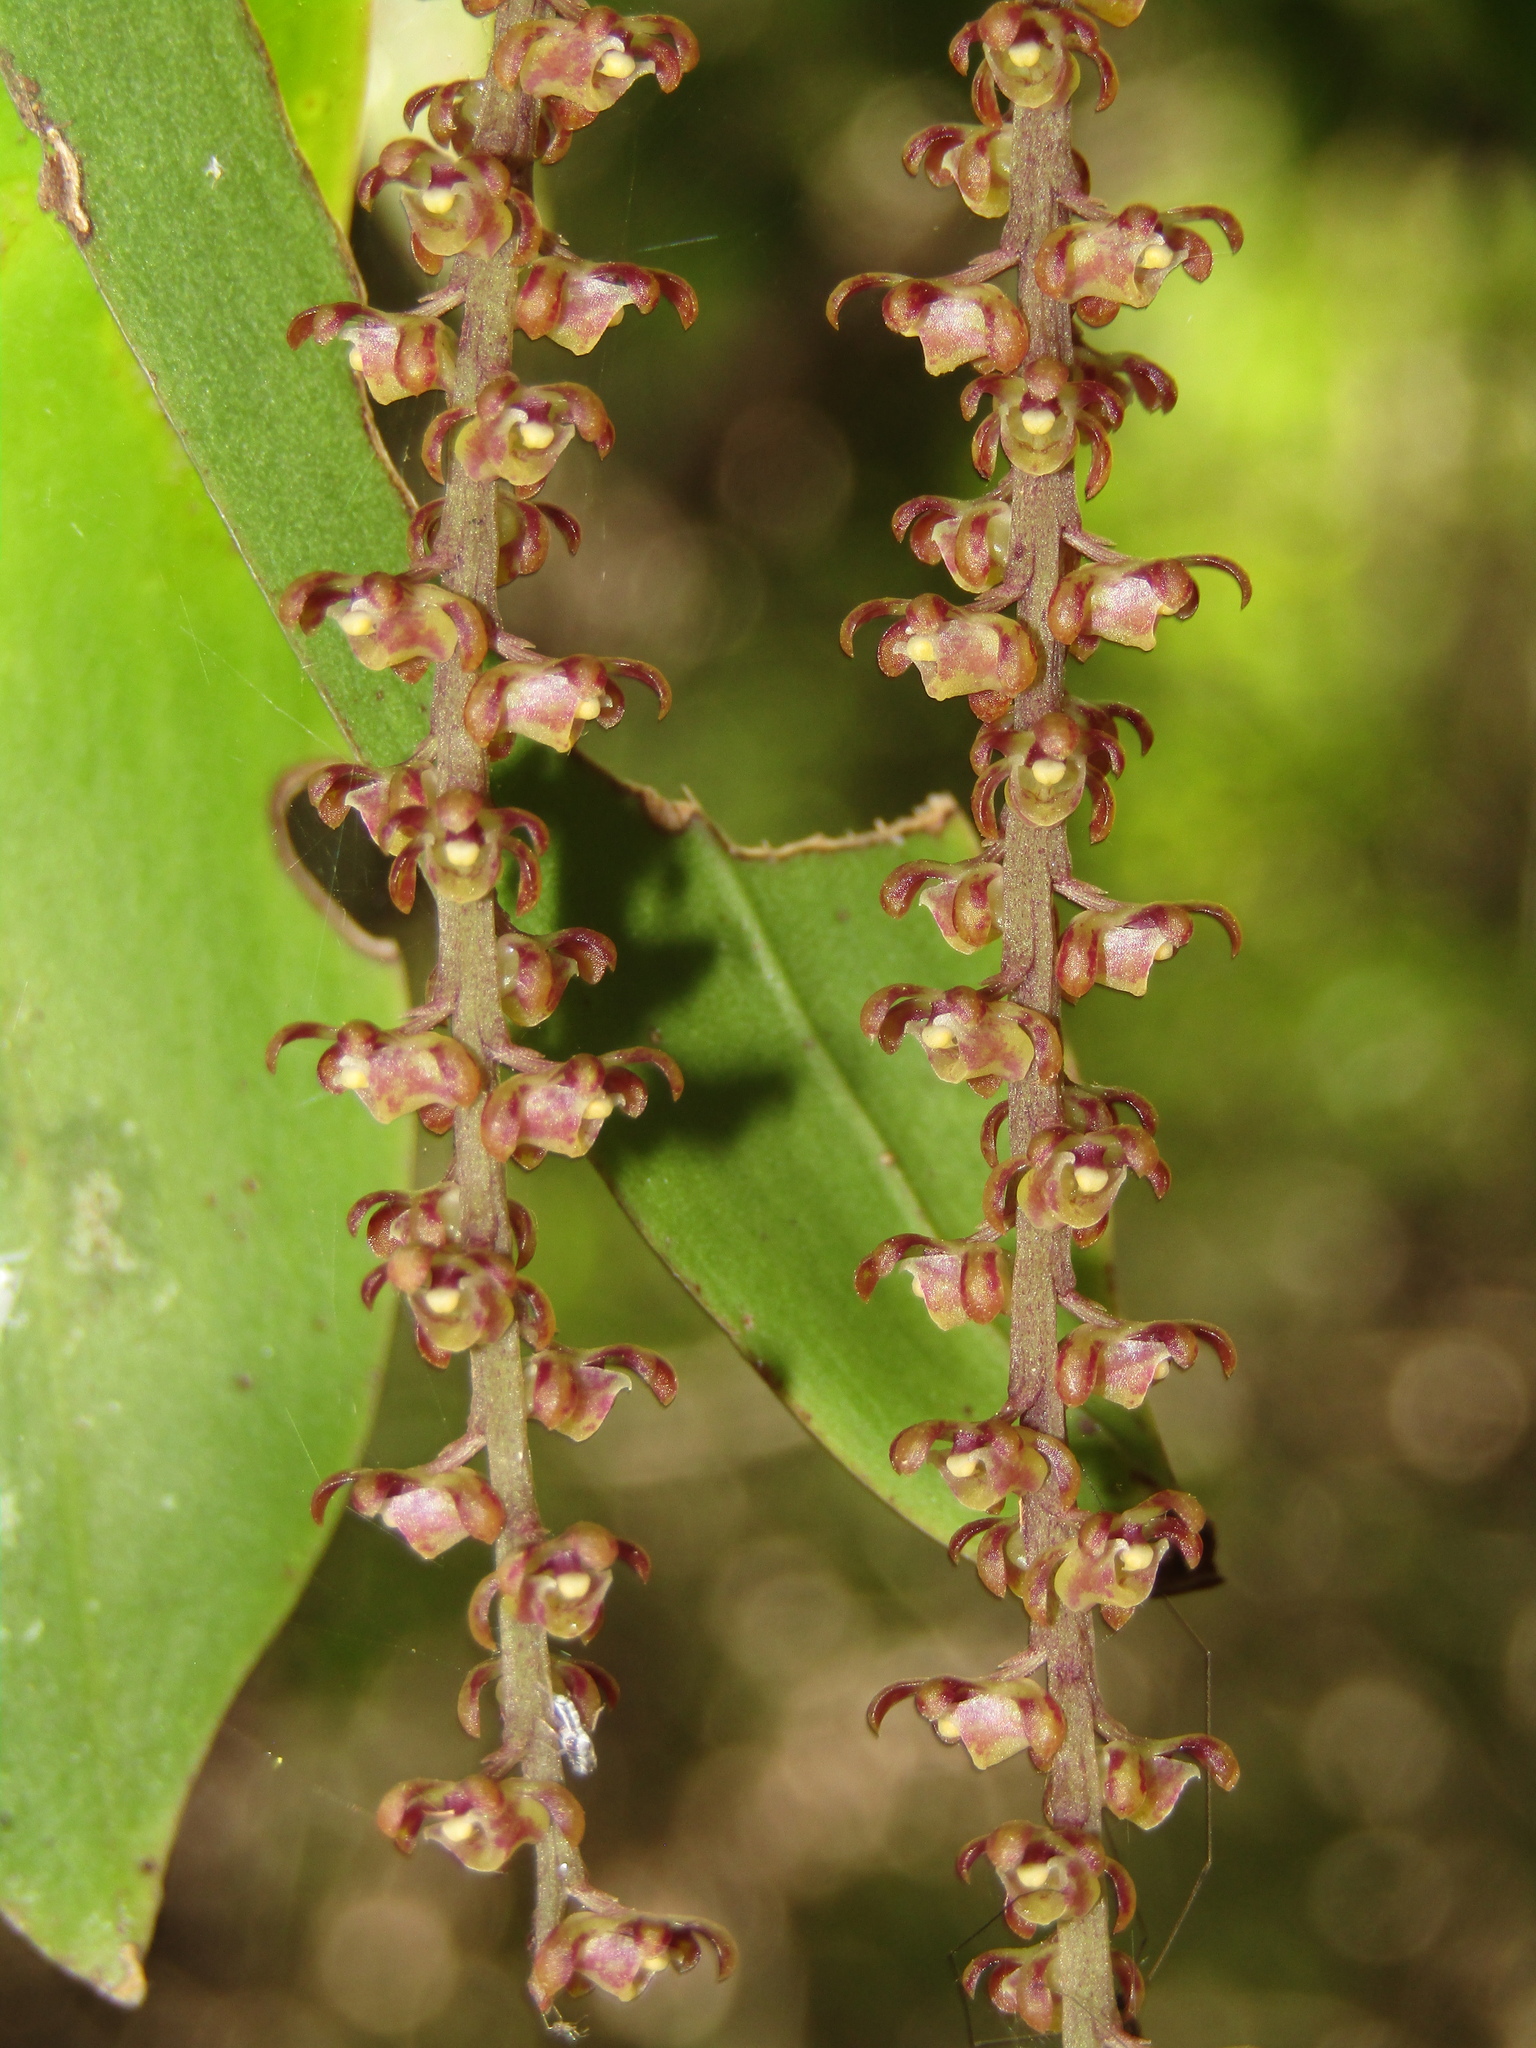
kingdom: Plantae
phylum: Tracheophyta
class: Liliopsida
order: Asparagales
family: Orchidaceae
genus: Peristeranthus
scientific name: Peristeranthus hillii
